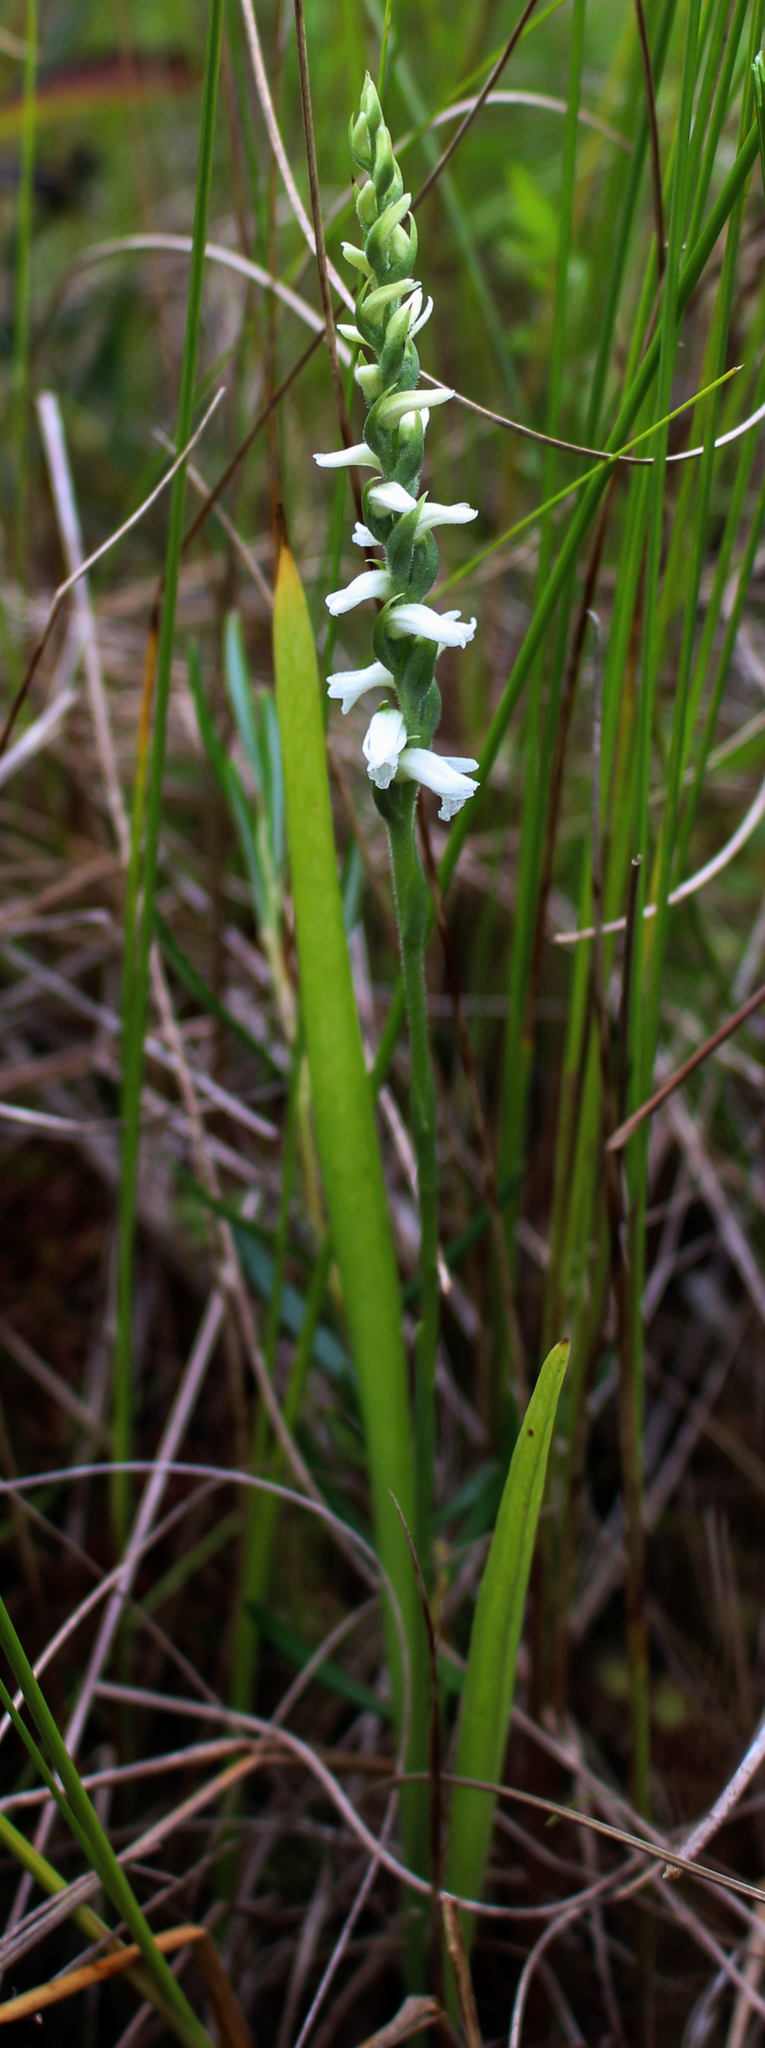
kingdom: Plantae
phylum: Tracheophyta
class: Liliopsida
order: Asparagales
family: Orchidaceae
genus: Spiranthes
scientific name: Spiranthes incurva
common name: Sphinx ladies'-tresses
